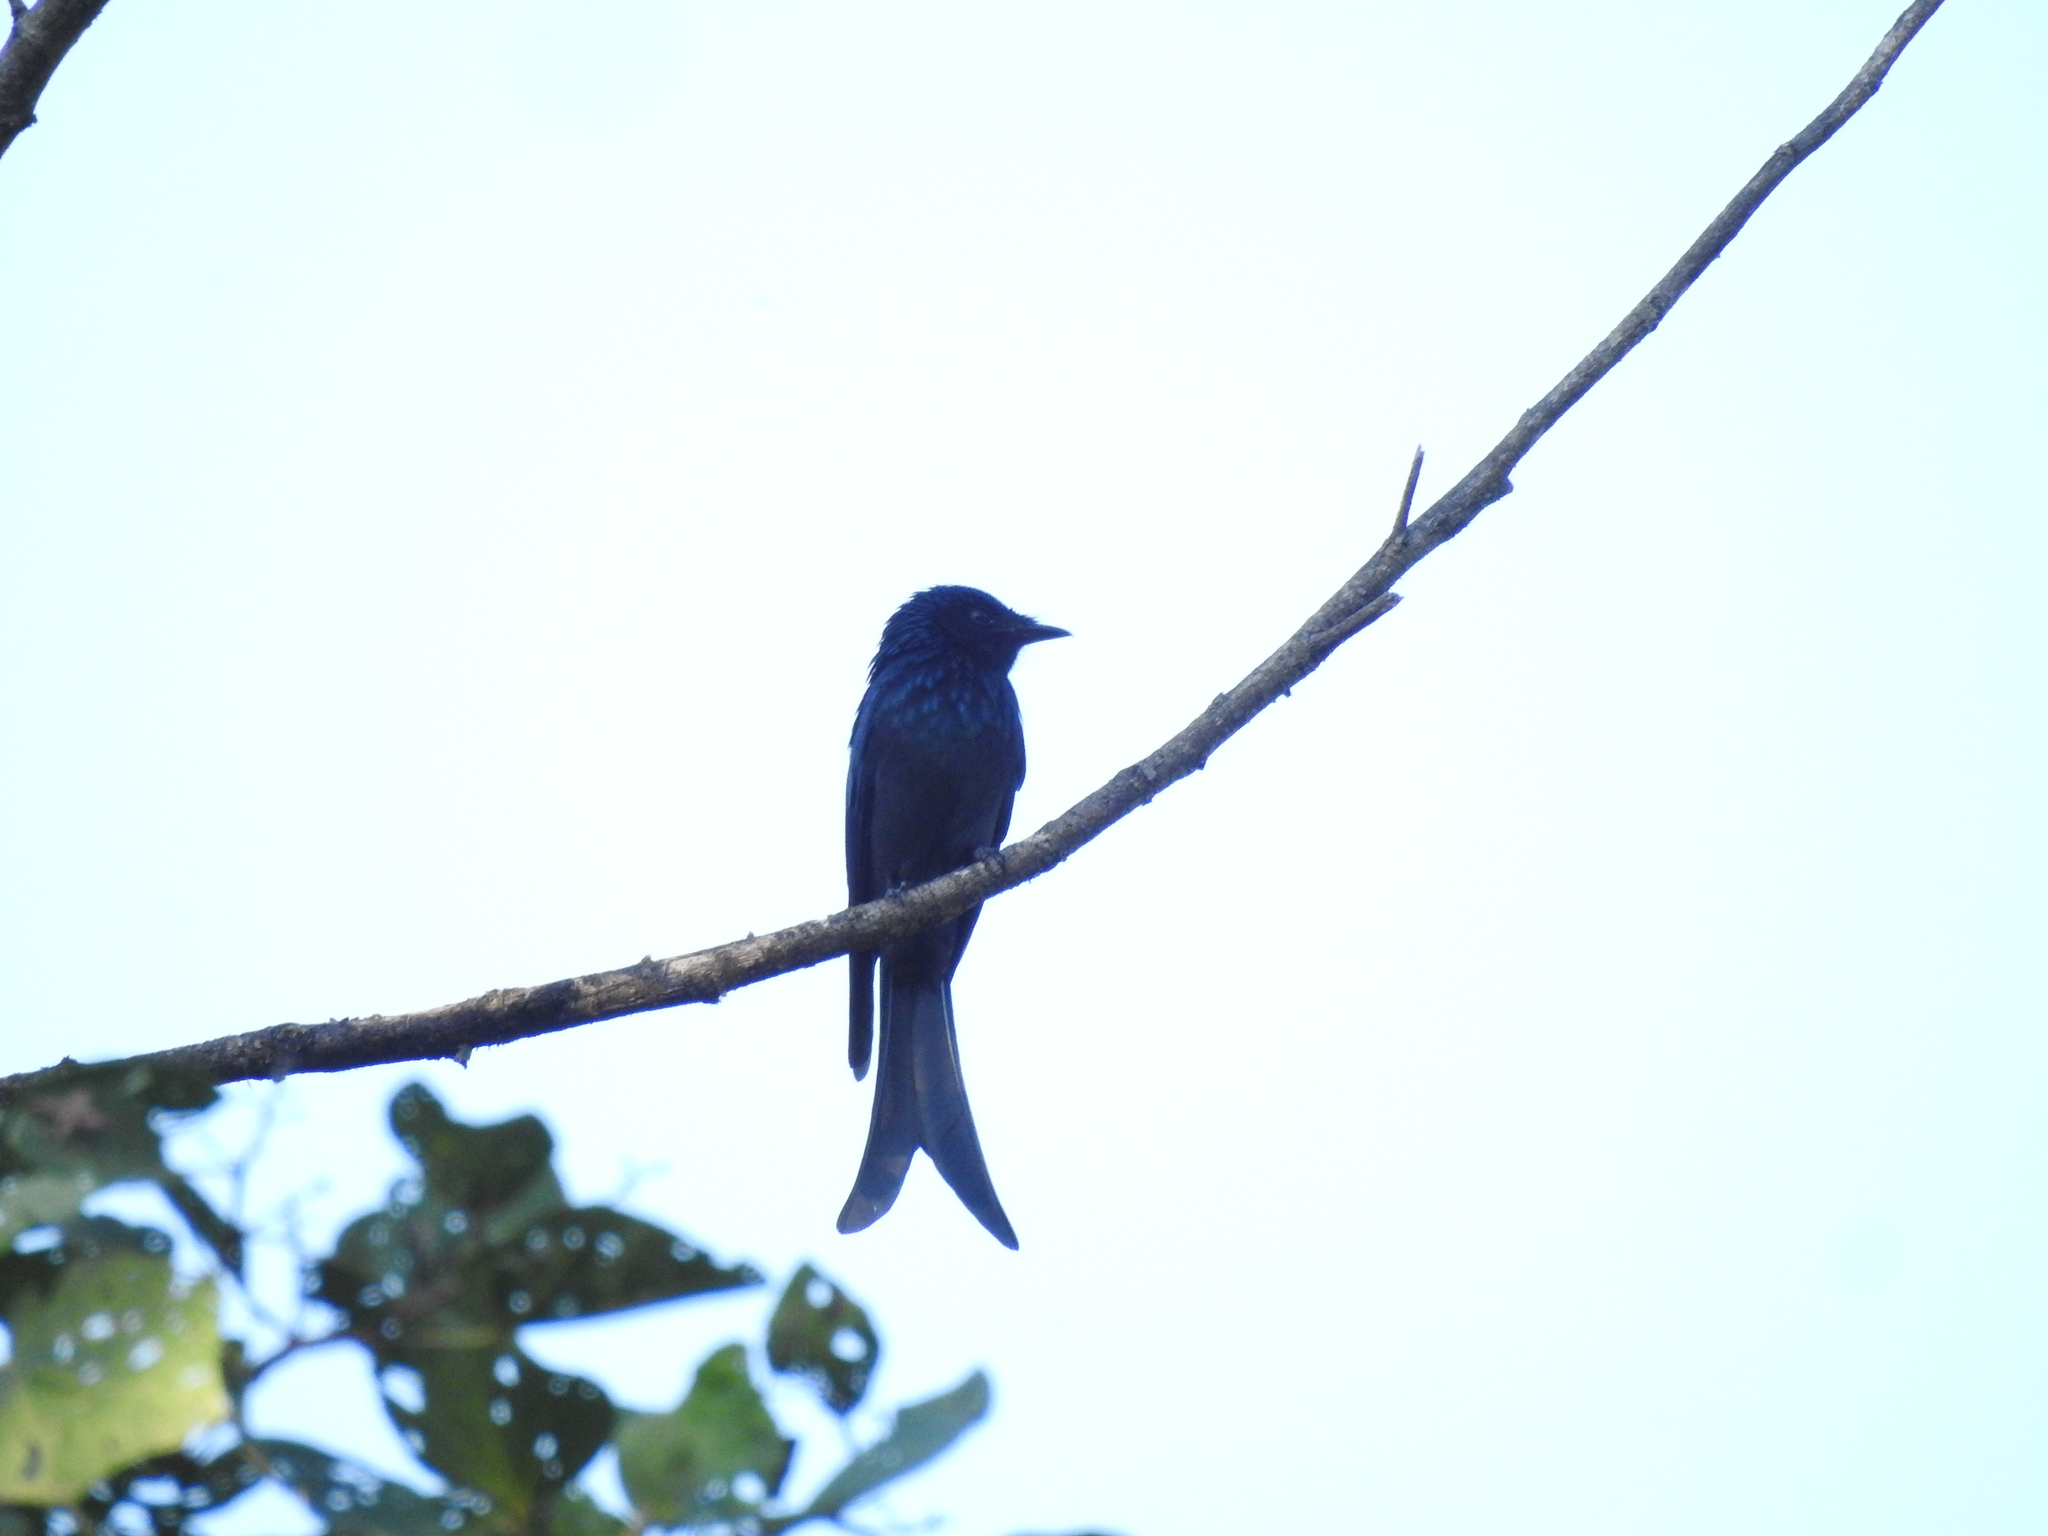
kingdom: Animalia
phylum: Chordata
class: Aves
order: Passeriformes
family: Dicruridae
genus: Dicrurus
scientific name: Dicrurus aeneus
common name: Bronzed drongo
